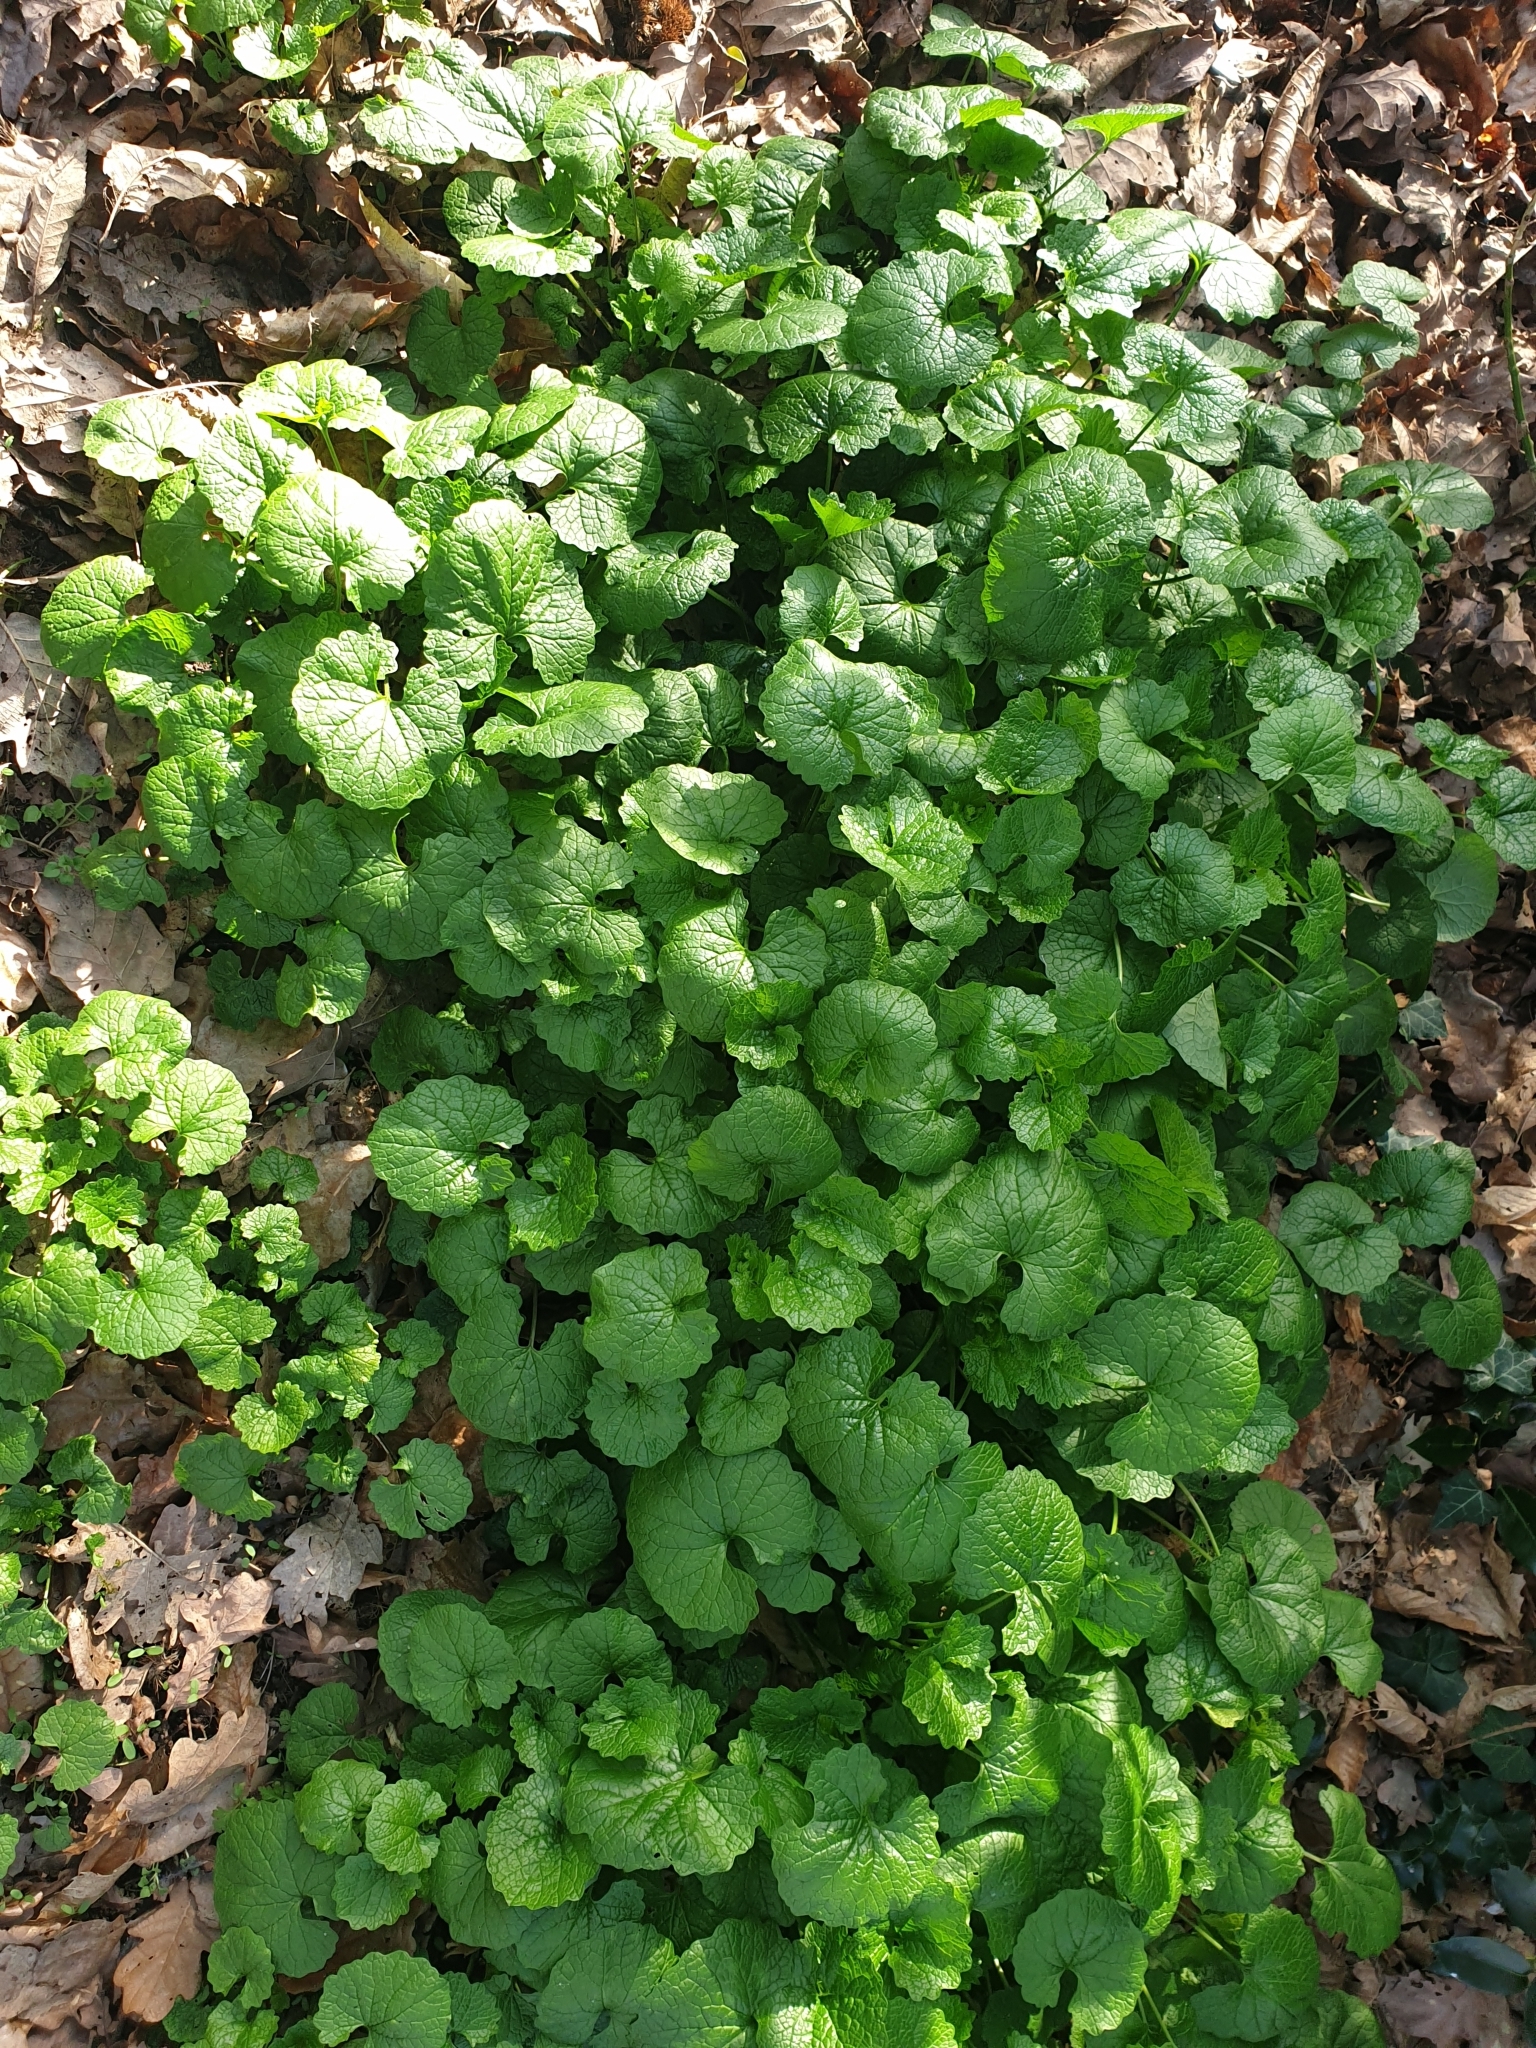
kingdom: Plantae
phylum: Tracheophyta
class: Magnoliopsida
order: Brassicales
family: Brassicaceae
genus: Alliaria
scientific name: Alliaria petiolata
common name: Garlic mustard
